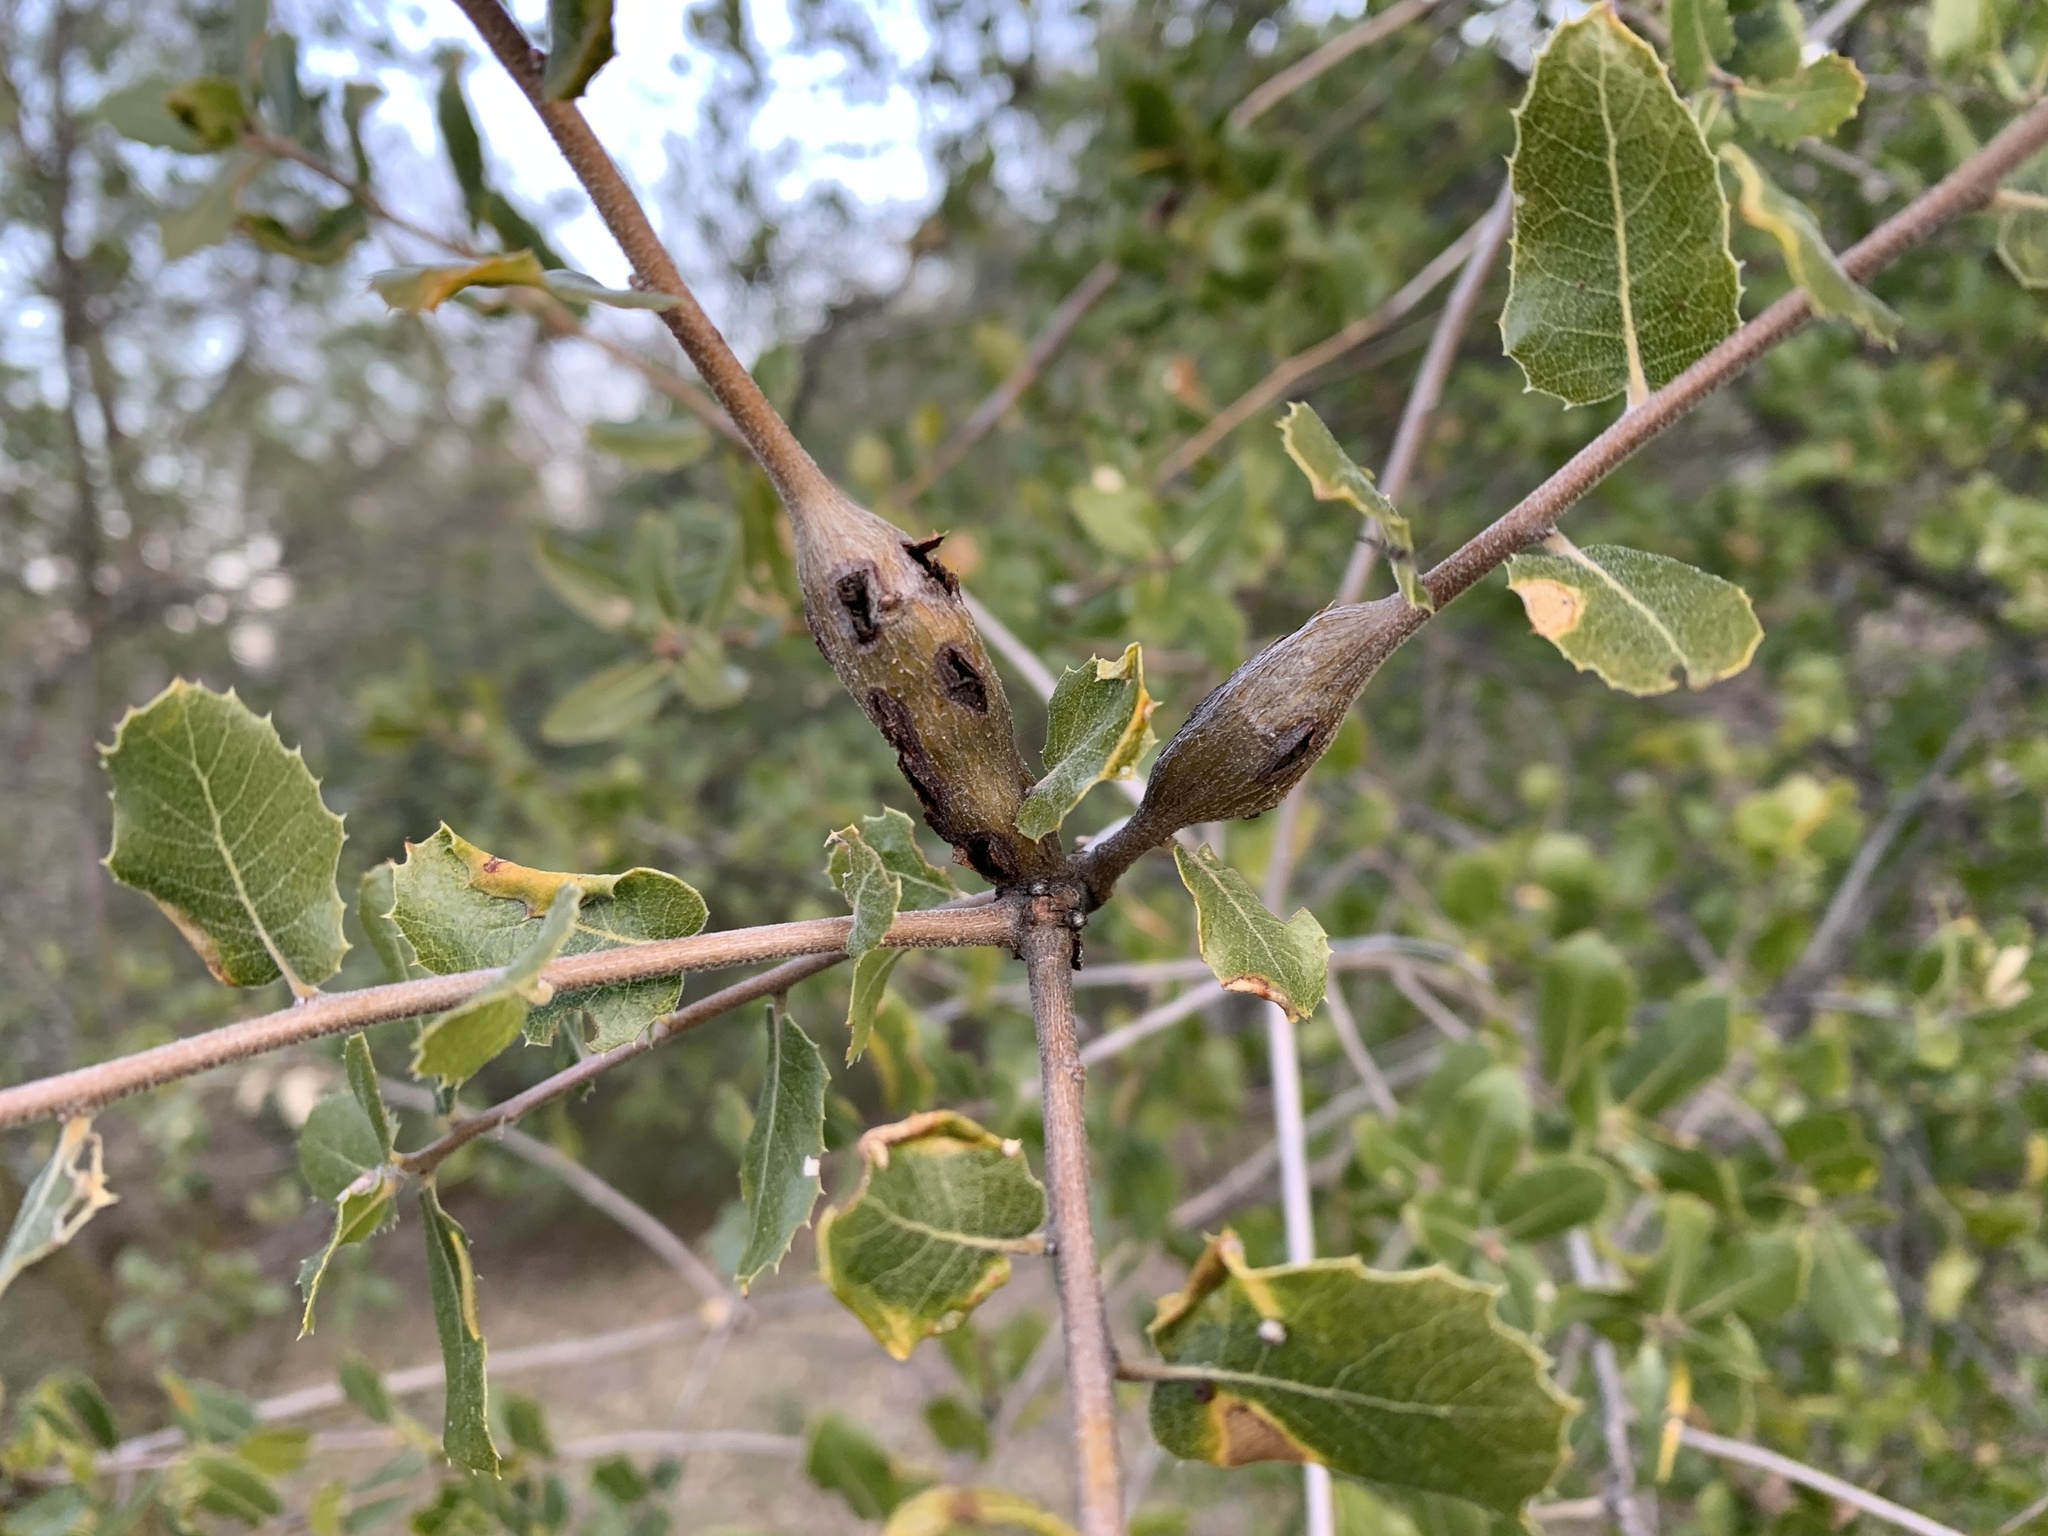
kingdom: Animalia
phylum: Arthropoda
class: Insecta
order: Hymenoptera
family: Cynipidae
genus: Callirhytis
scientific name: Callirhytis
